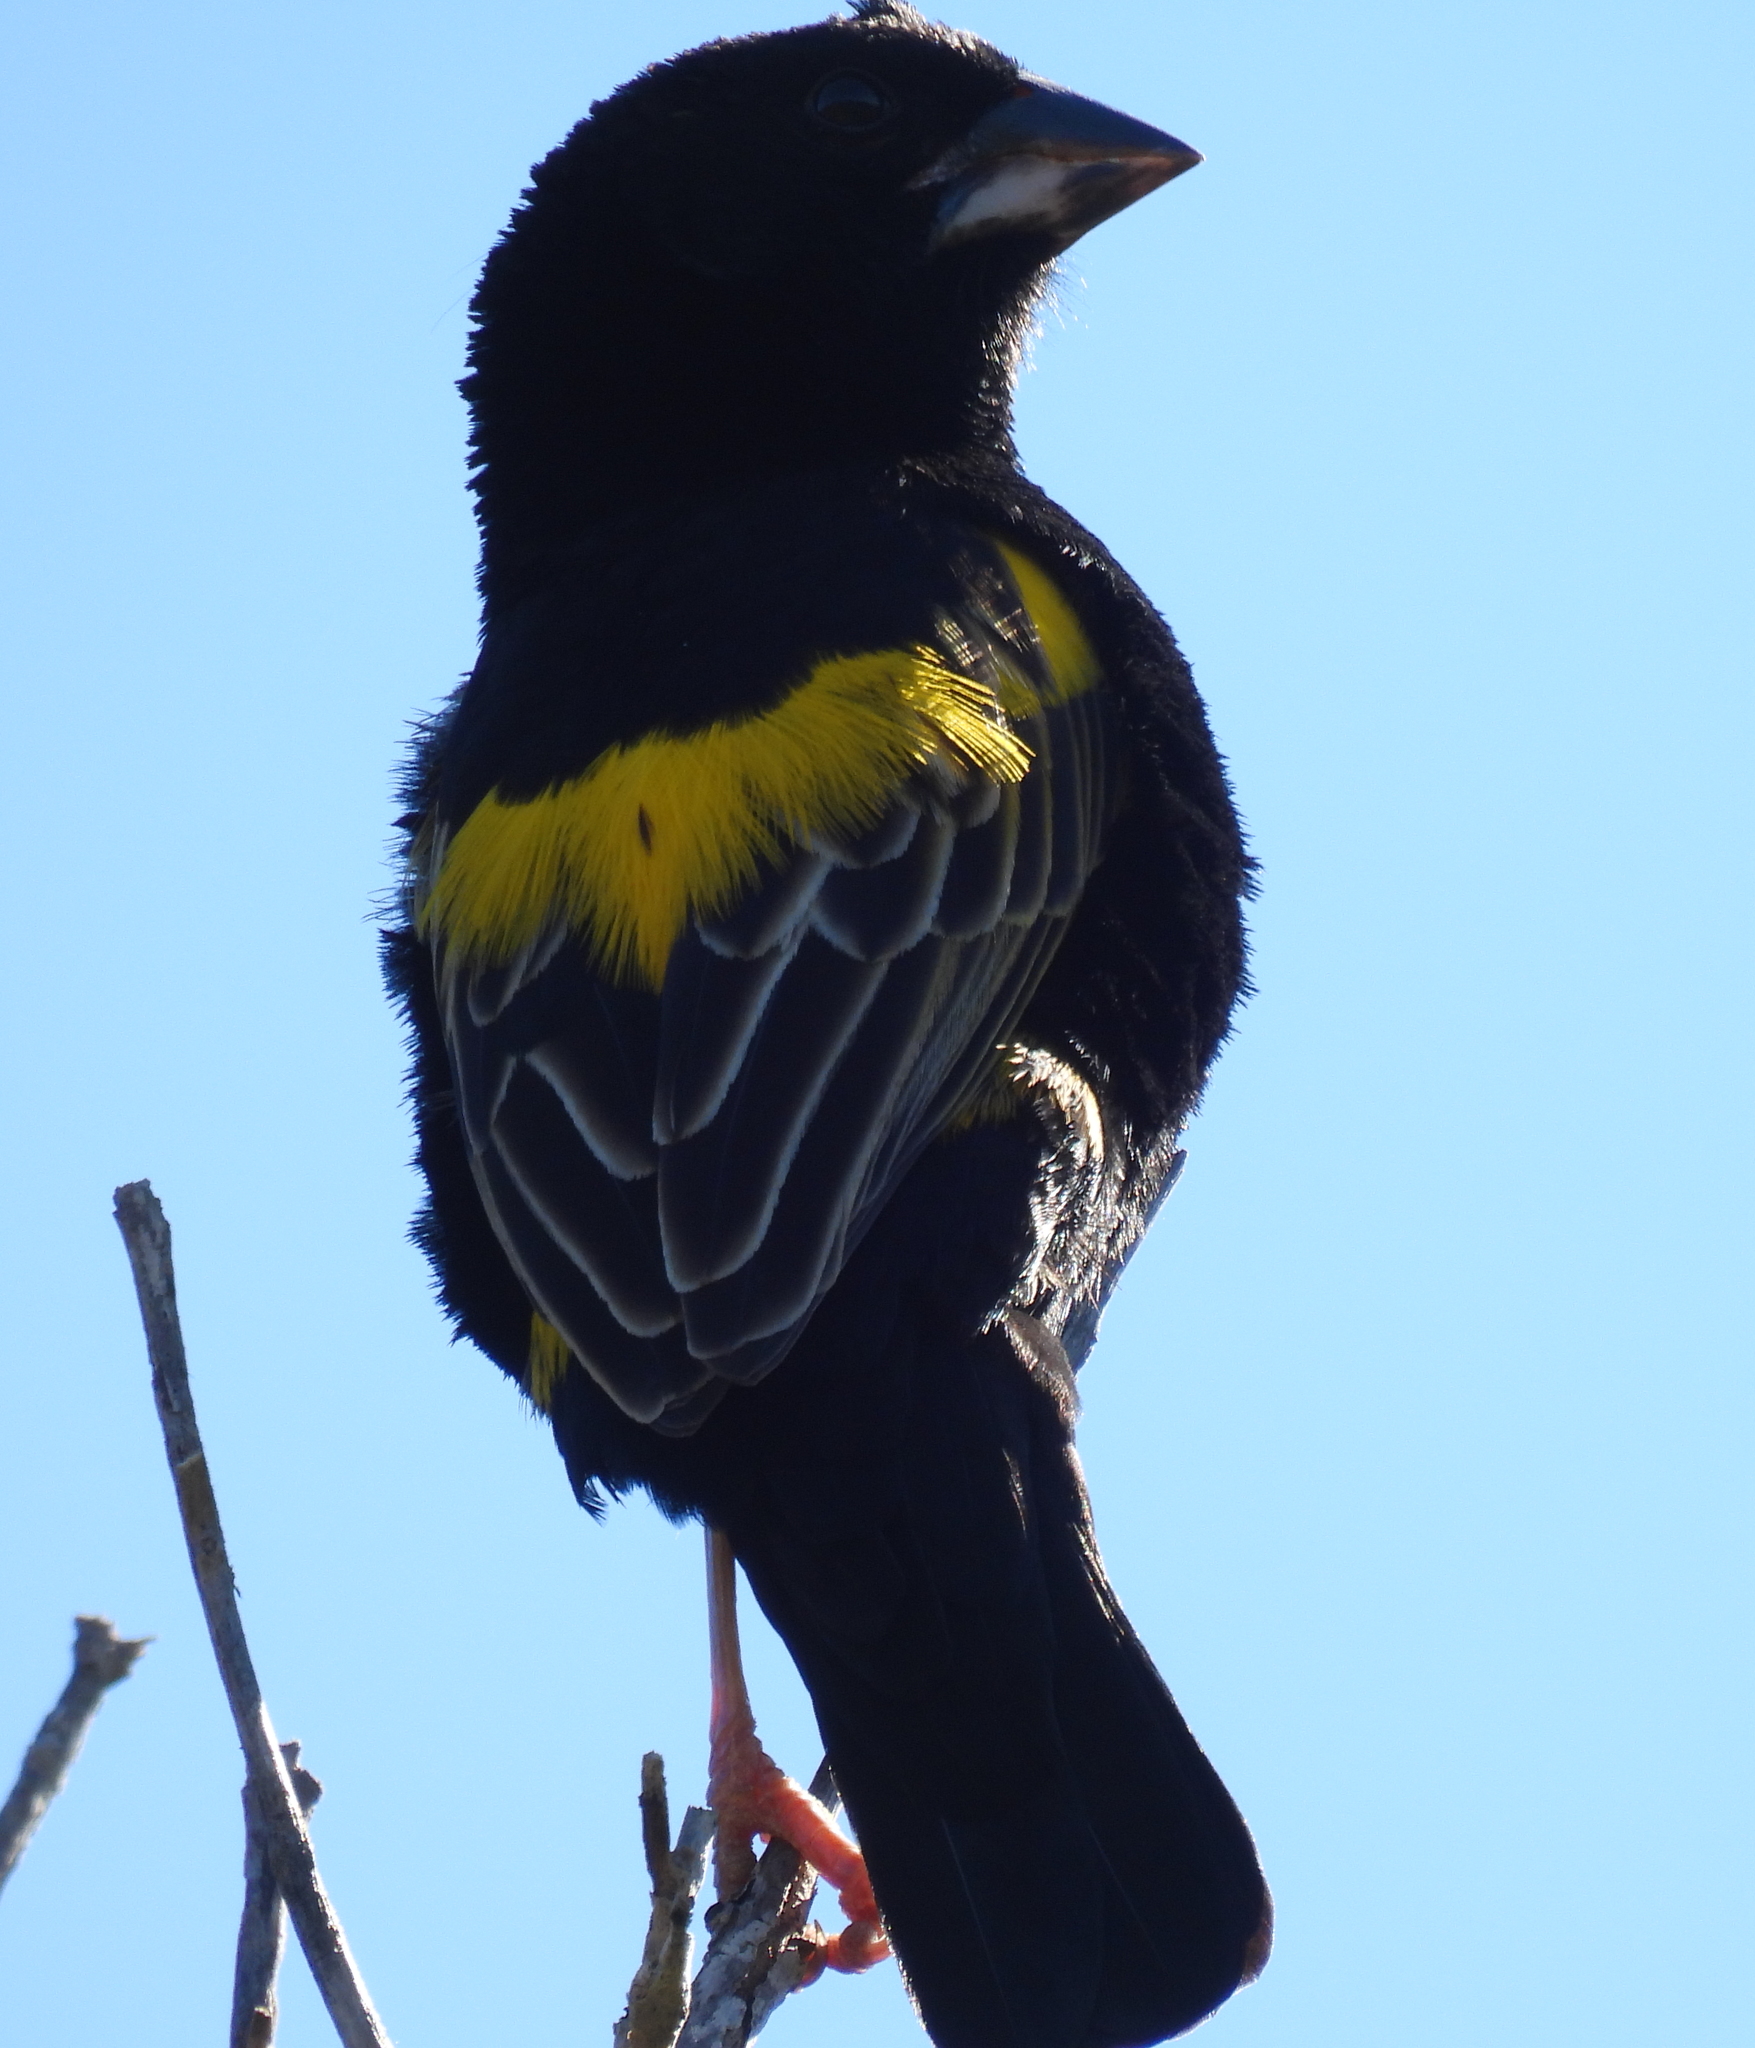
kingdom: Animalia
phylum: Chordata
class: Aves
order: Passeriformes
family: Ploceidae
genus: Euplectes
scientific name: Euplectes capensis
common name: Yellow bishop
